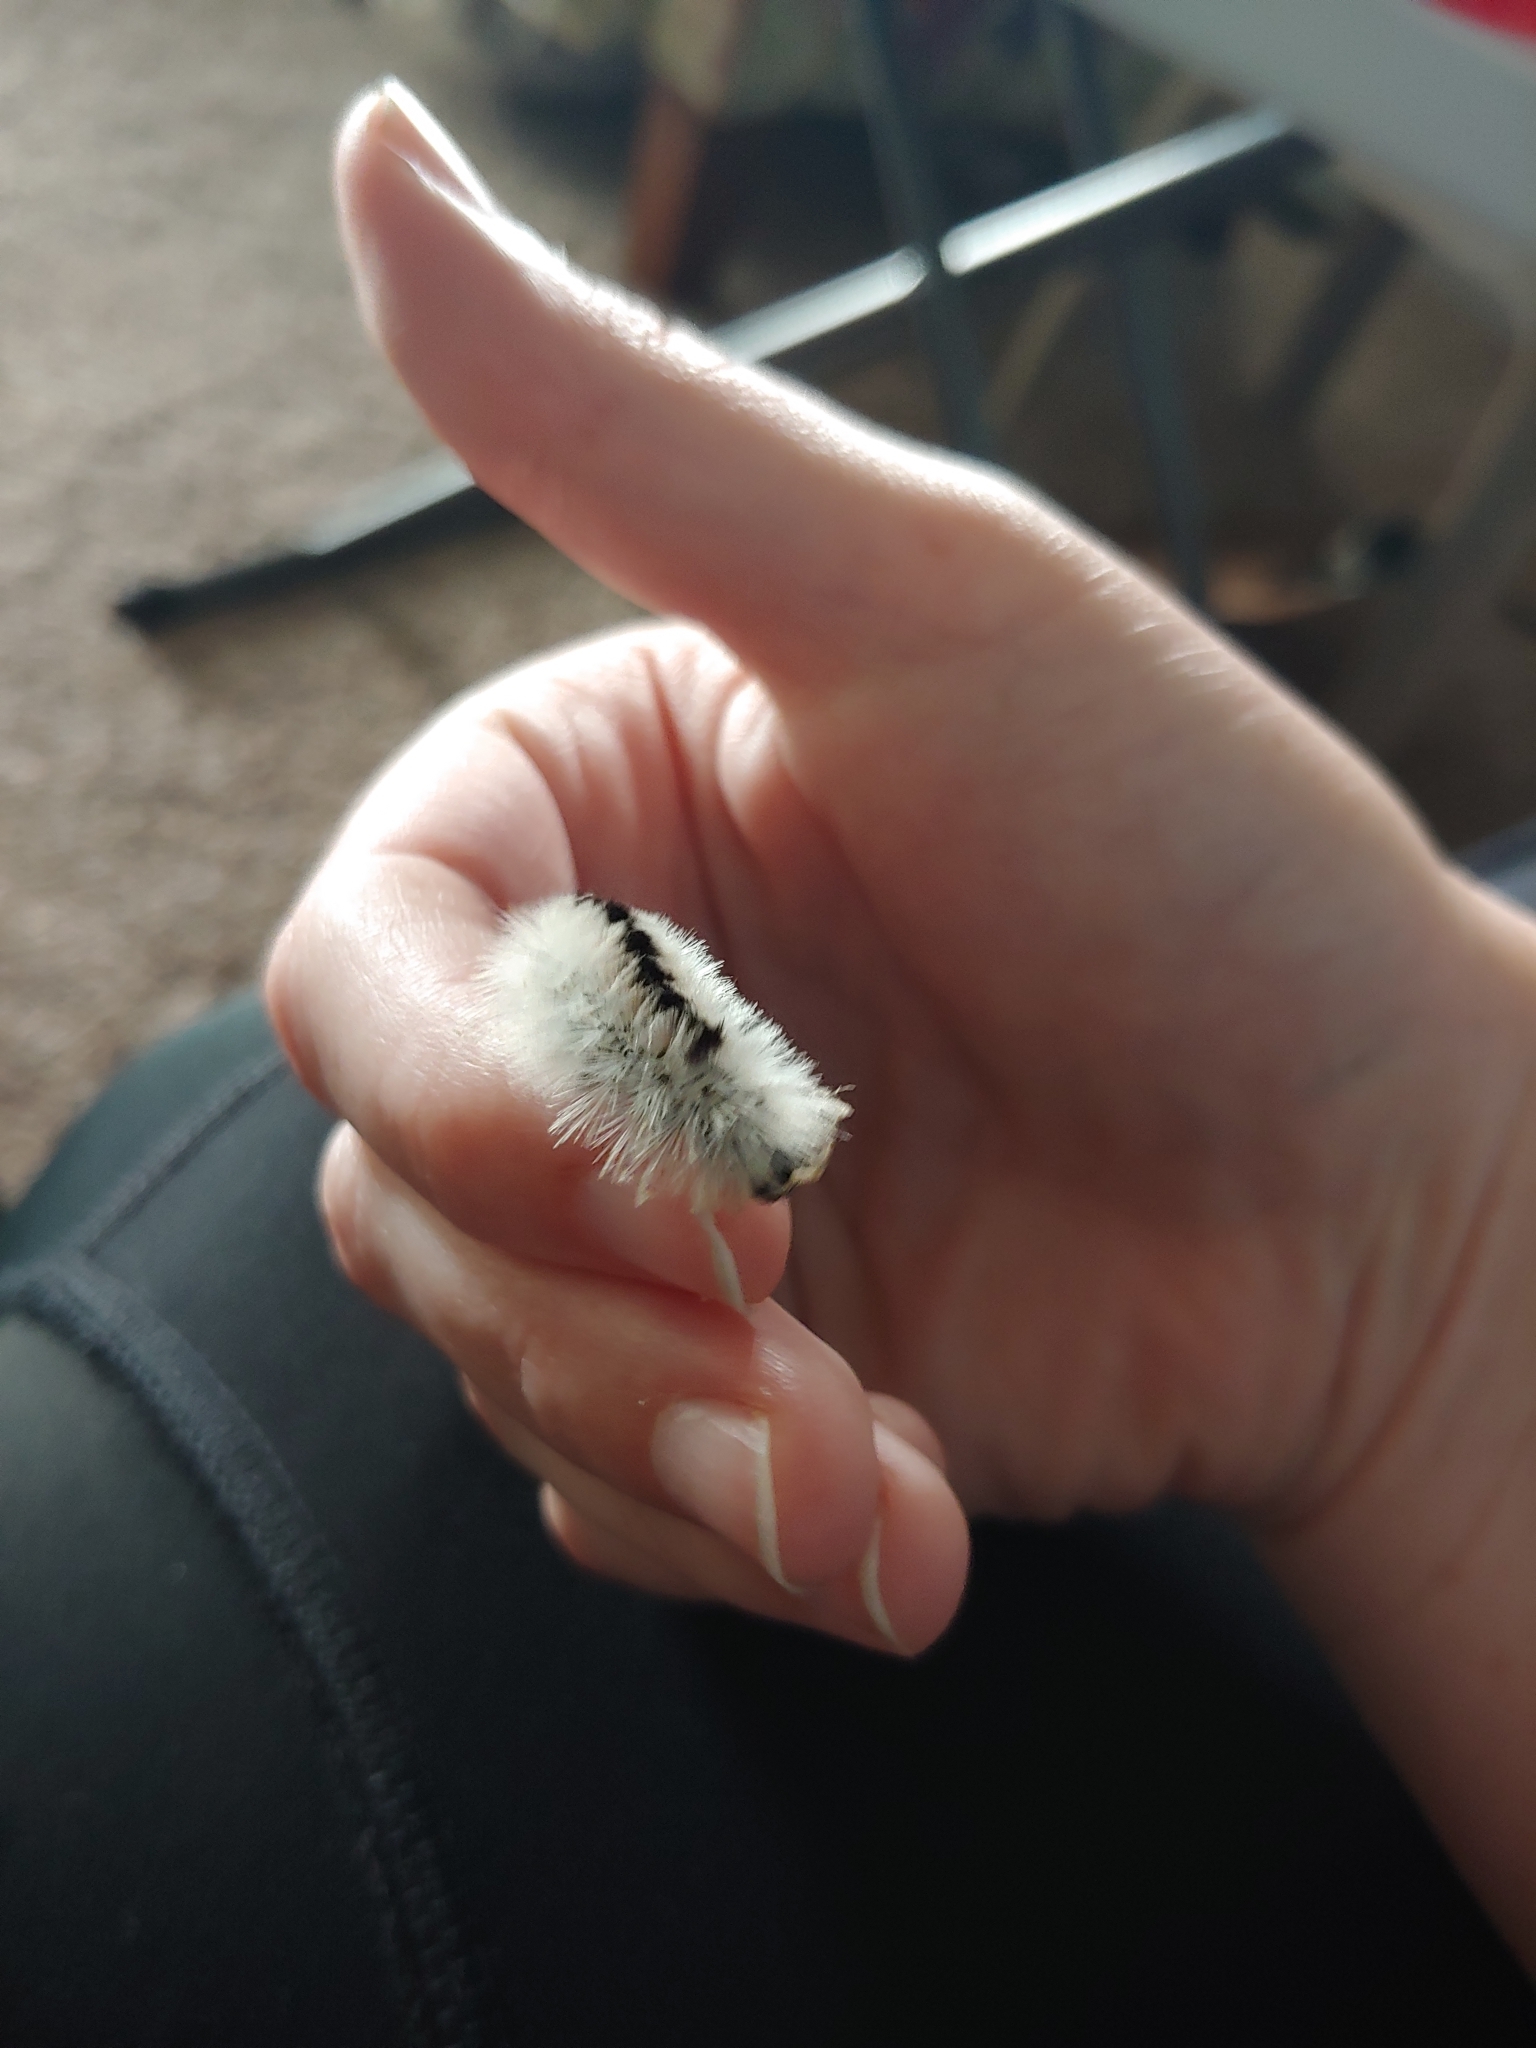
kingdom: Animalia
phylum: Arthropoda
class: Insecta
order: Lepidoptera
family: Erebidae
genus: Lophocampa
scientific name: Lophocampa caryae
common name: Hickory tussock moth
